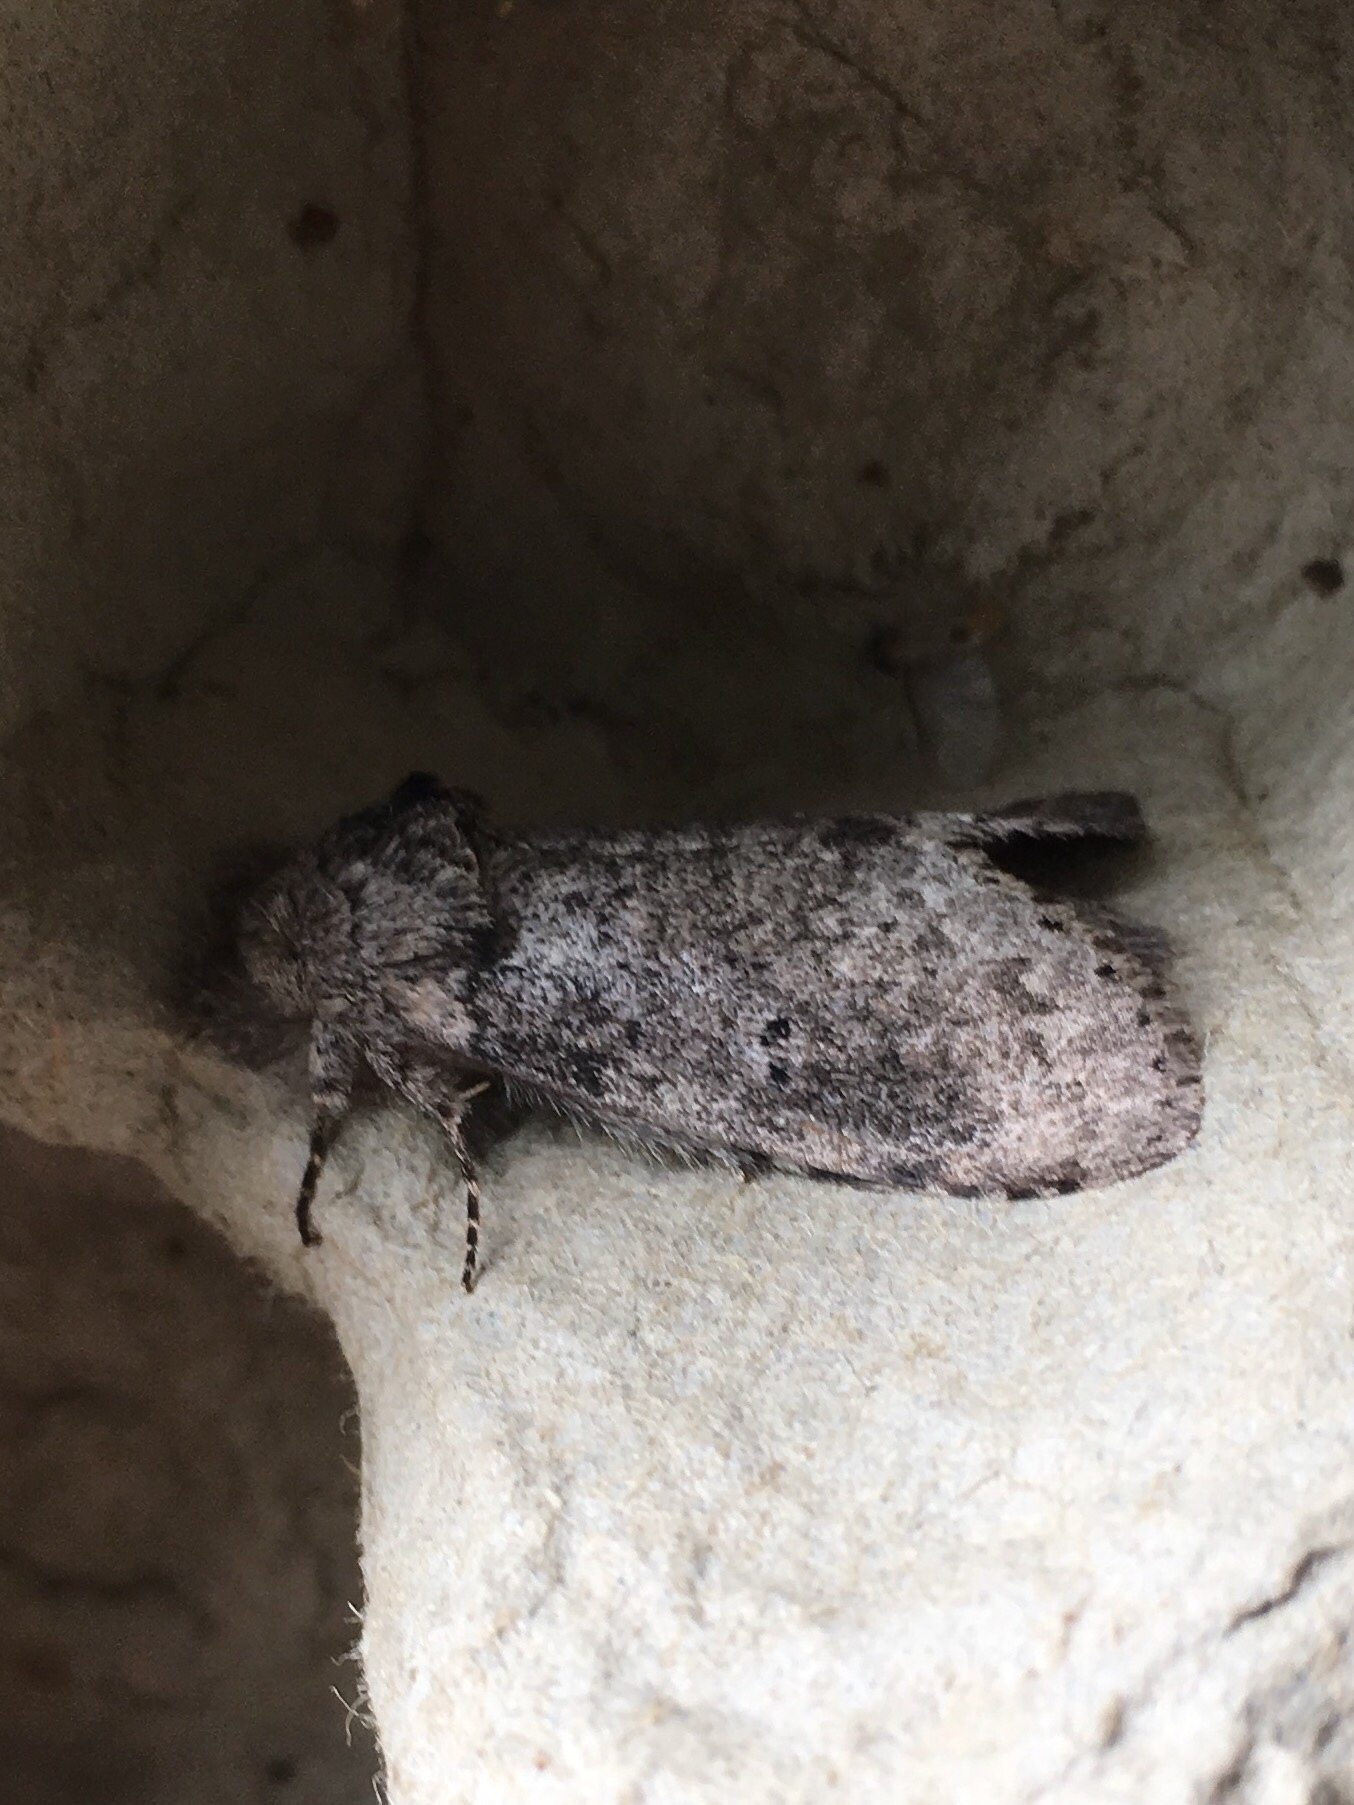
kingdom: Animalia
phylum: Arthropoda
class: Insecta
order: Lepidoptera
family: Notodontidae
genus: Lochmaeus
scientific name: Lochmaeus manteo
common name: Variable oakleaf caterpillar moth
